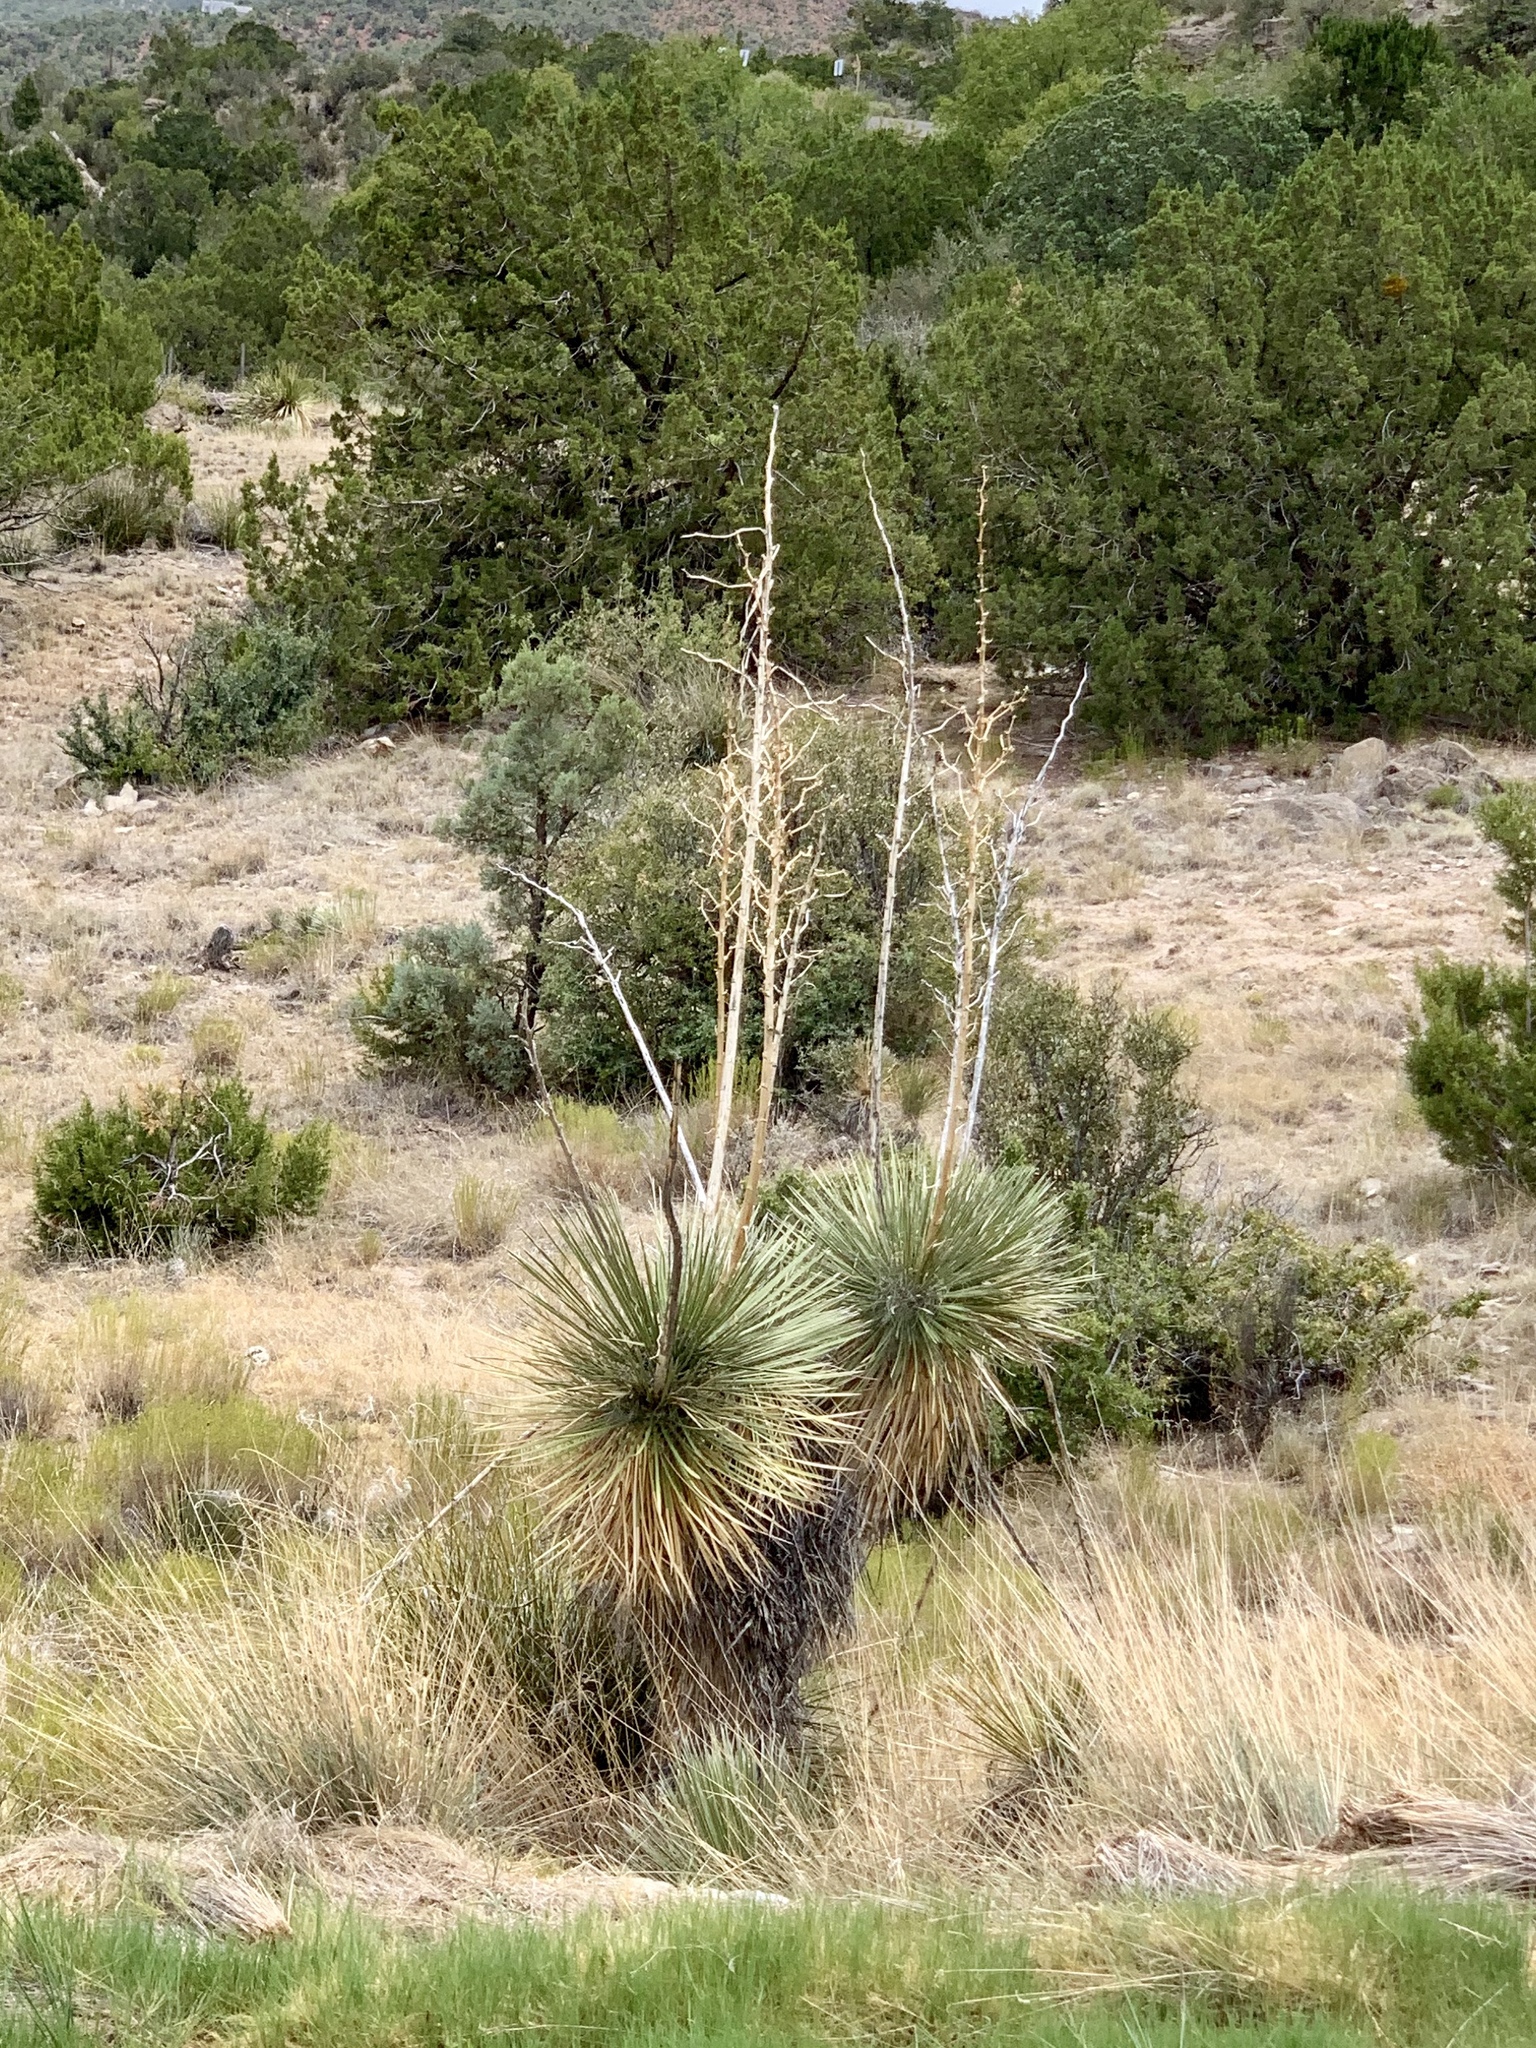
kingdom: Plantae
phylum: Tracheophyta
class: Liliopsida
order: Asparagales
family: Asparagaceae
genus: Yucca
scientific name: Yucca elata
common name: Palmella
